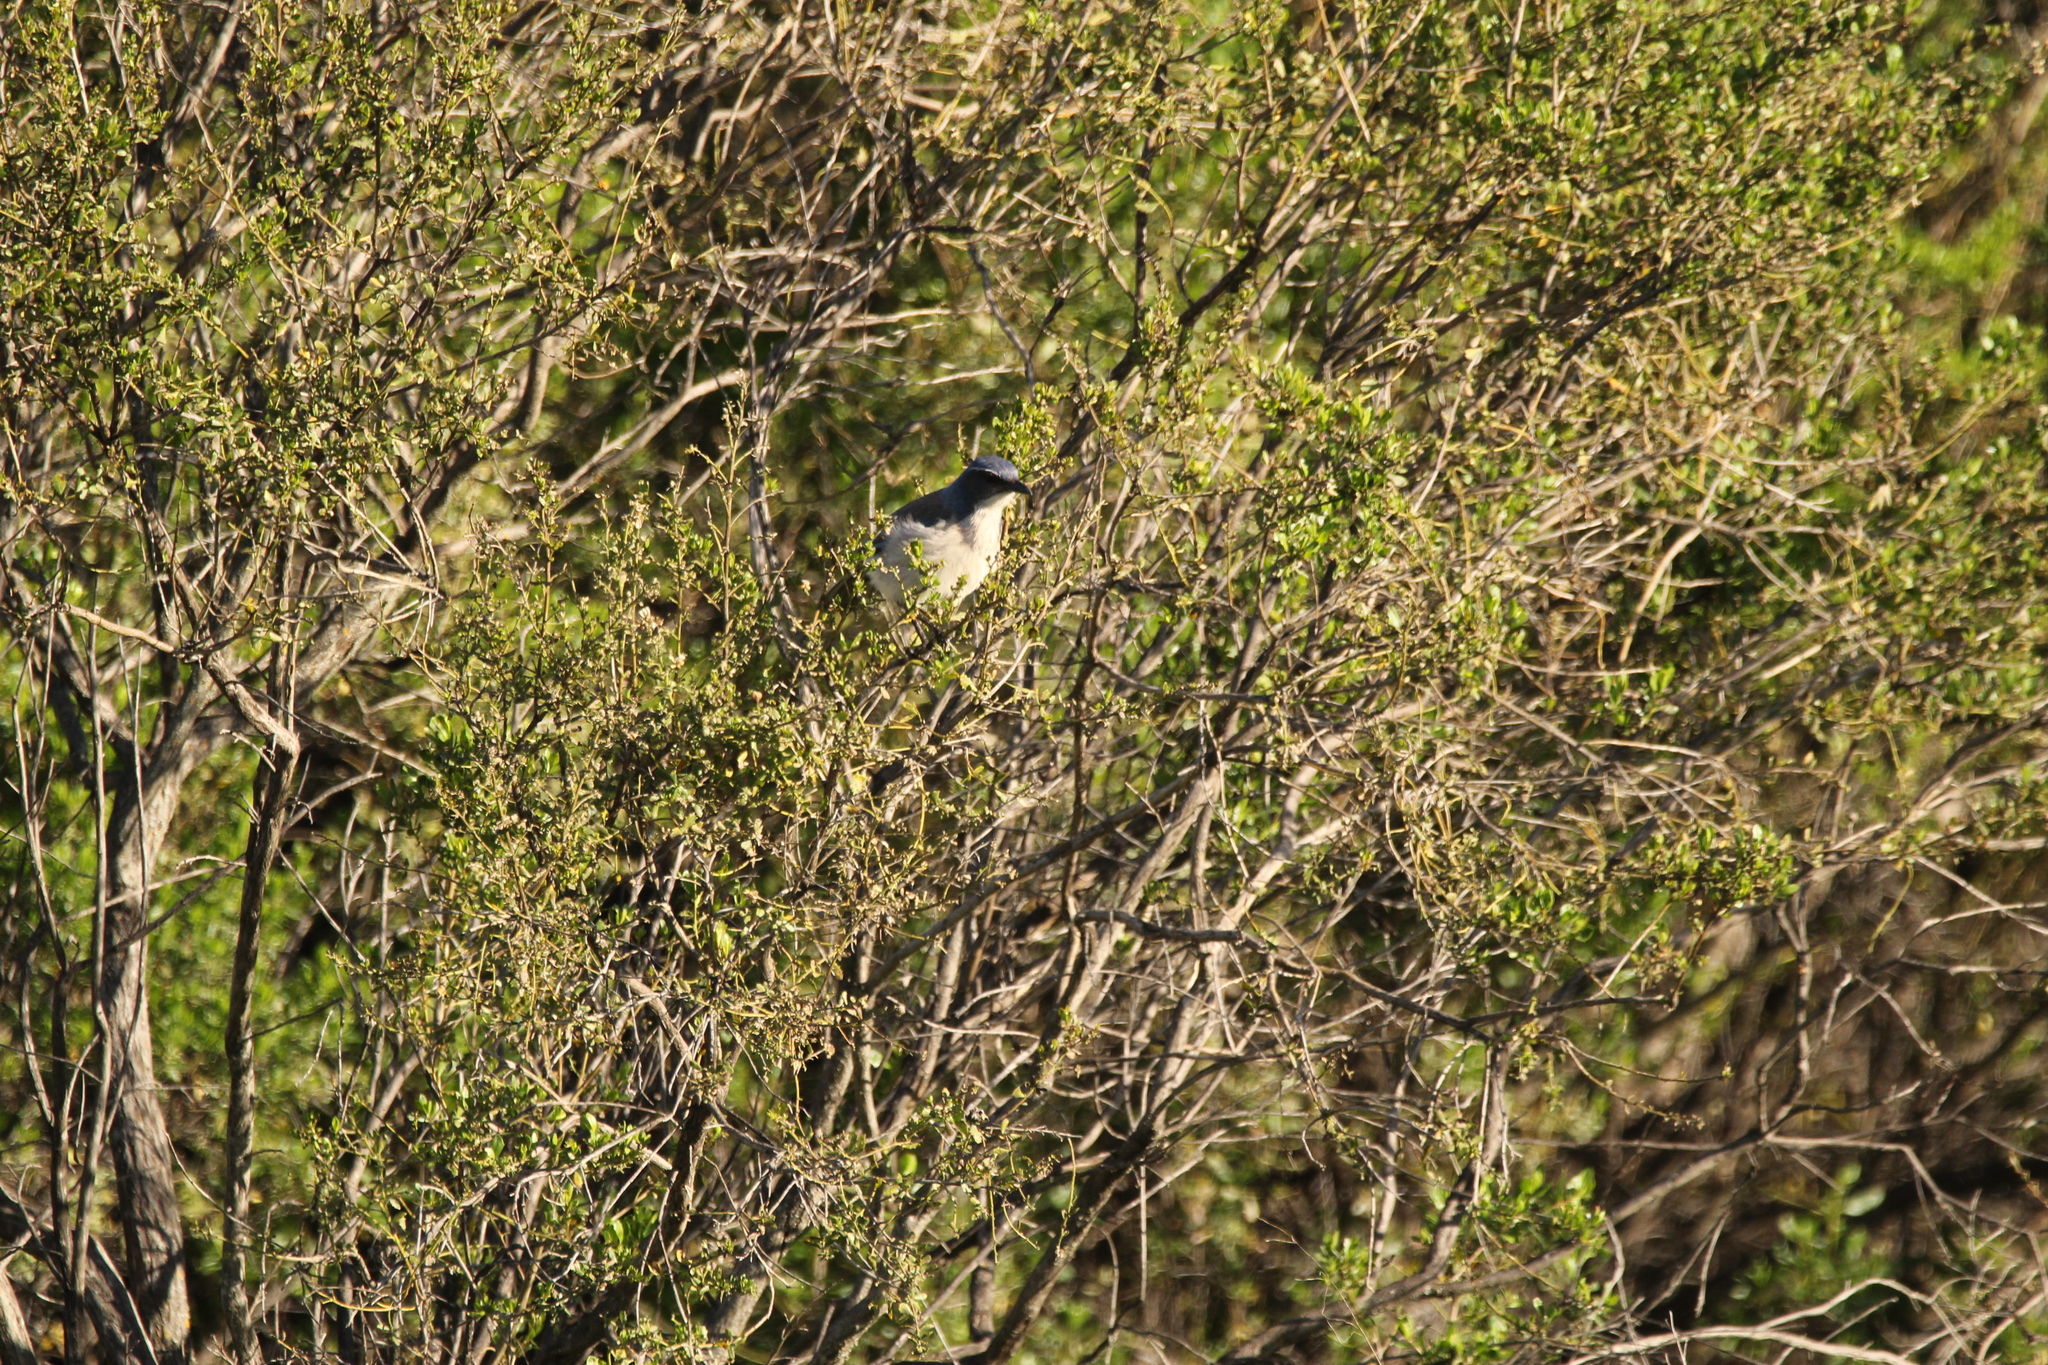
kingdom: Animalia
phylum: Chordata
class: Aves
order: Passeriformes
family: Corvidae
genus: Aphelocoma
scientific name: Aphelocoma californica
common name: California scrub-jay
